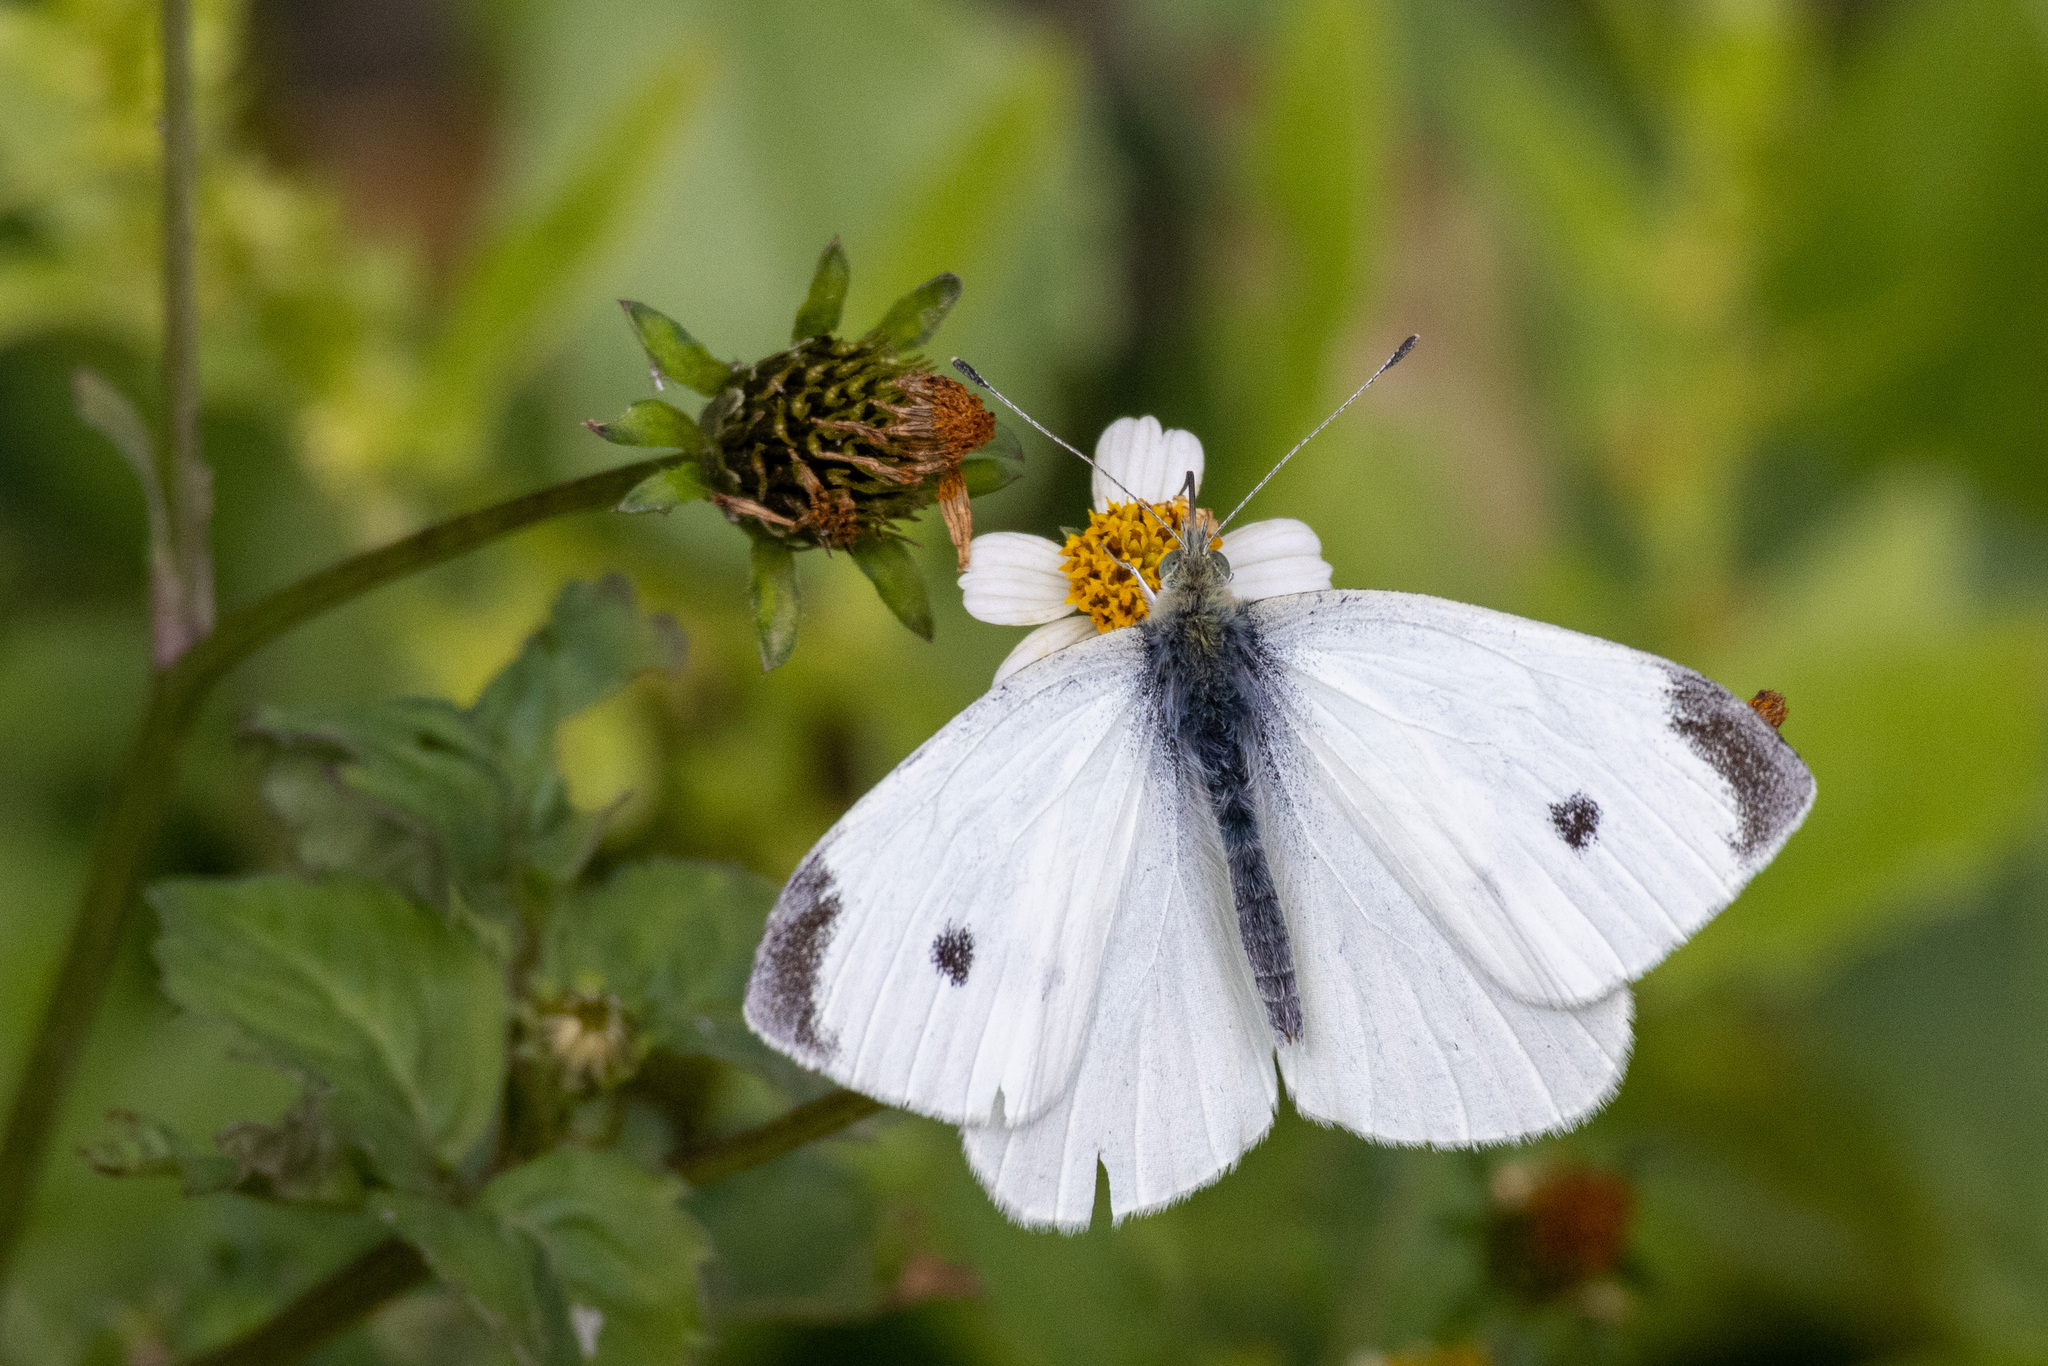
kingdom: Animalia
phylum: Arthropoda
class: Insecta
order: Lepidoptera
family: Pieridae
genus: Pieris
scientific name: Pieris rapae
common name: Small white
